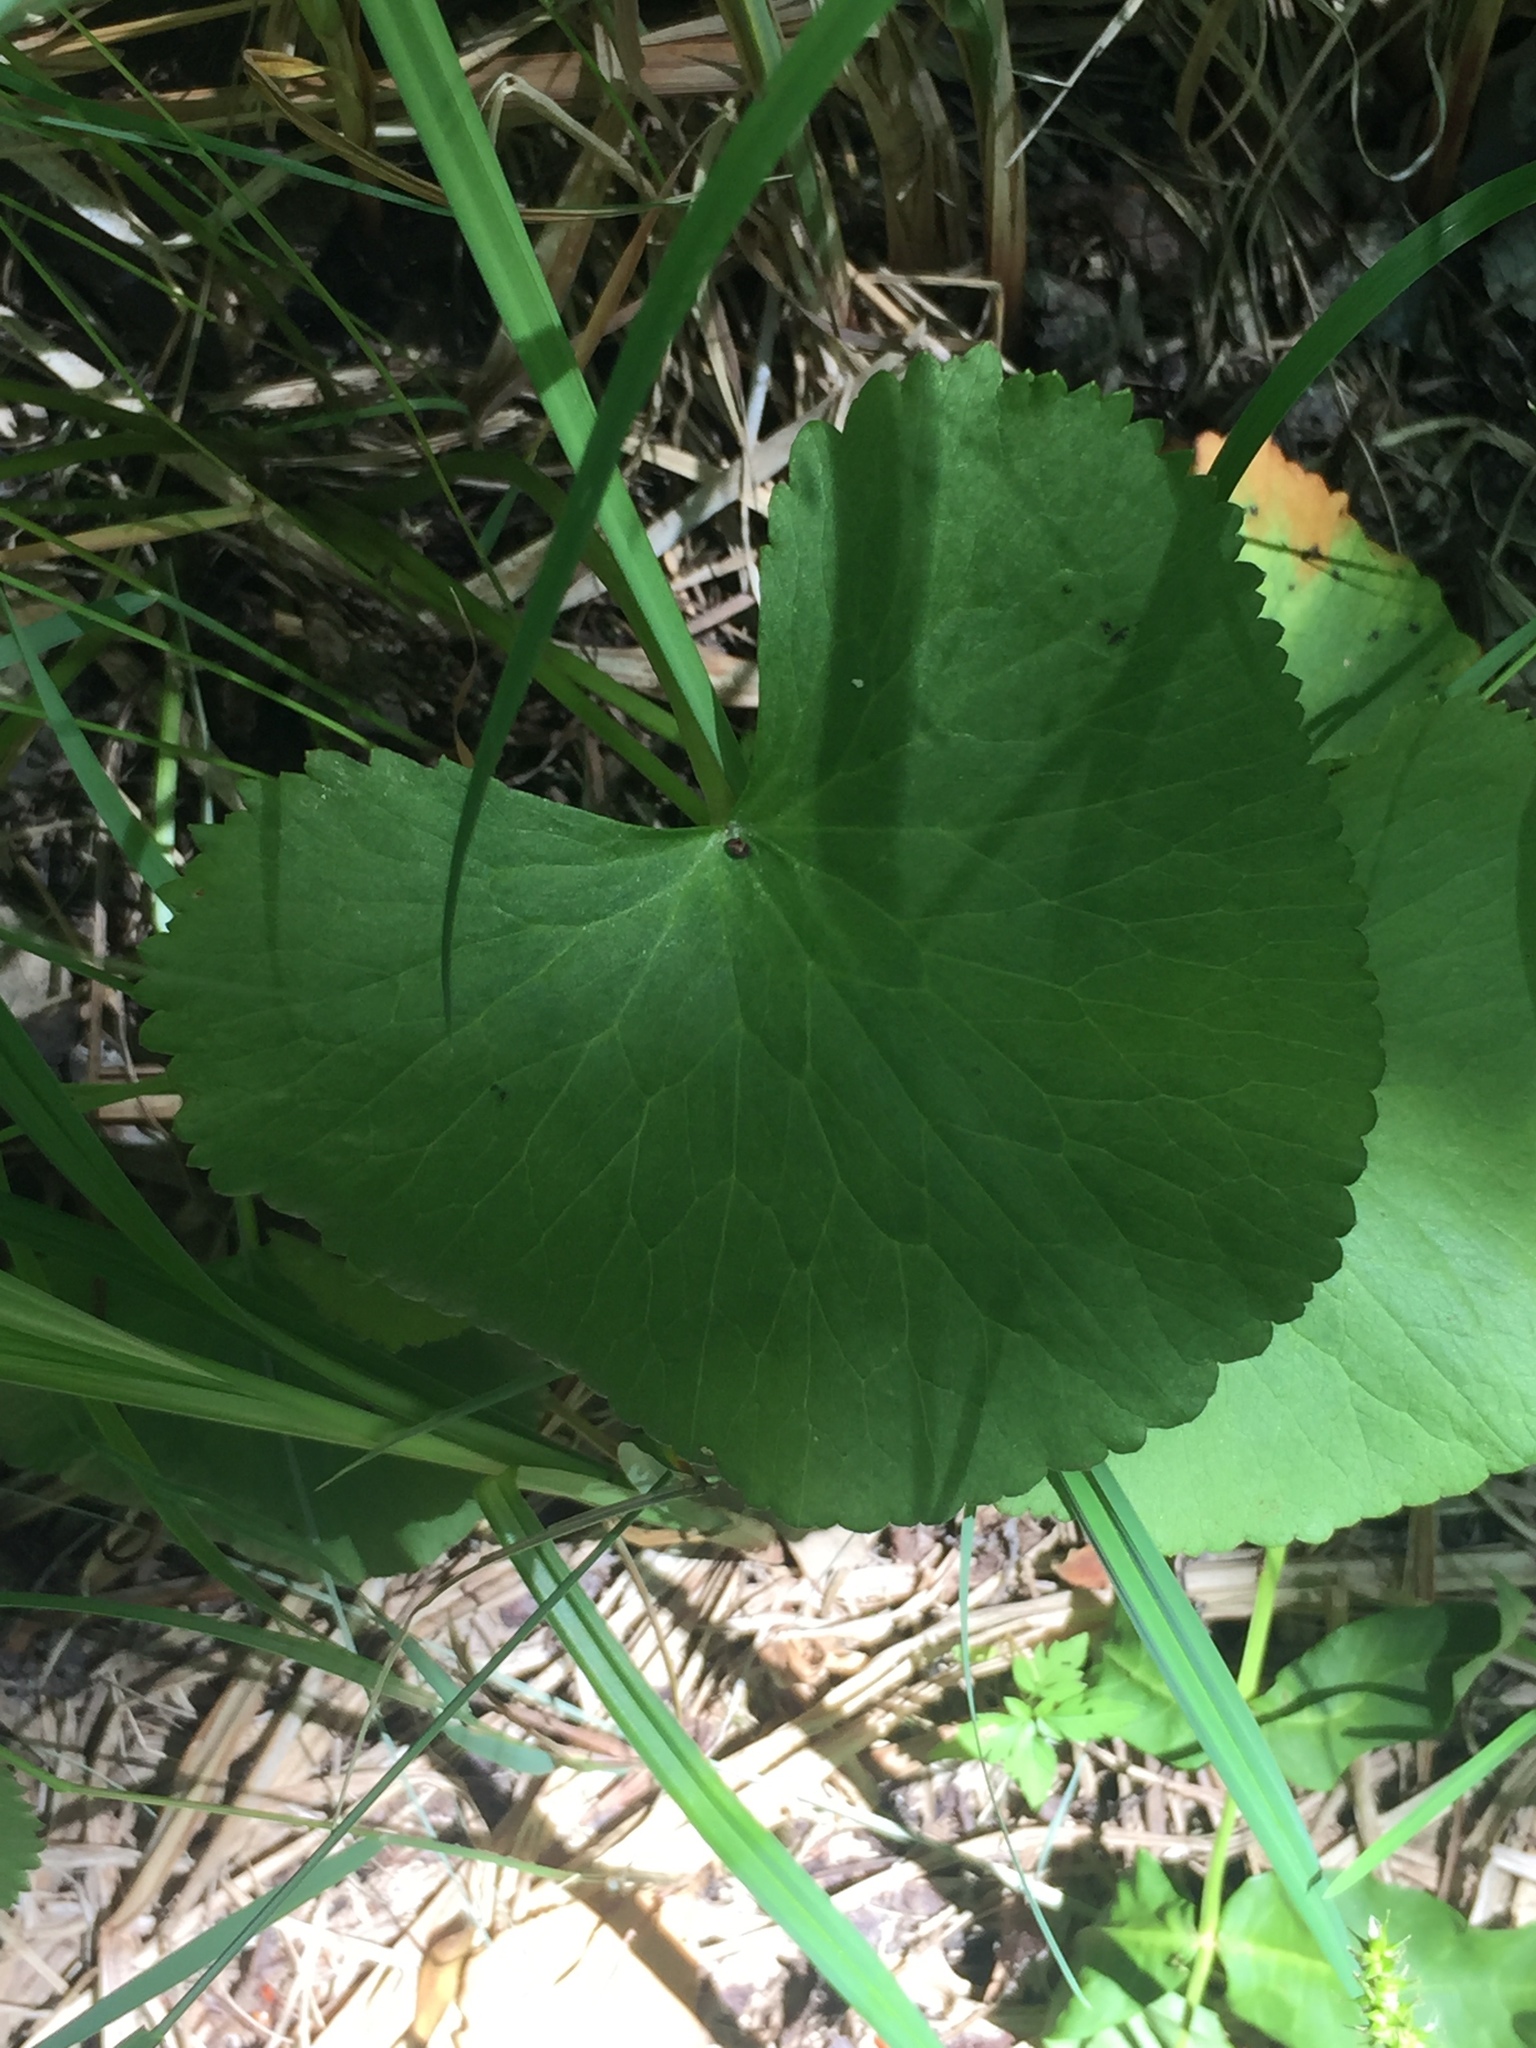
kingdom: Plantae
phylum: Tracheophyta
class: Magnoliopsida
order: Ranunculales
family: Ranunculaceae
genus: Caltha
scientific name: Caltha palustris
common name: Marsh marigold
